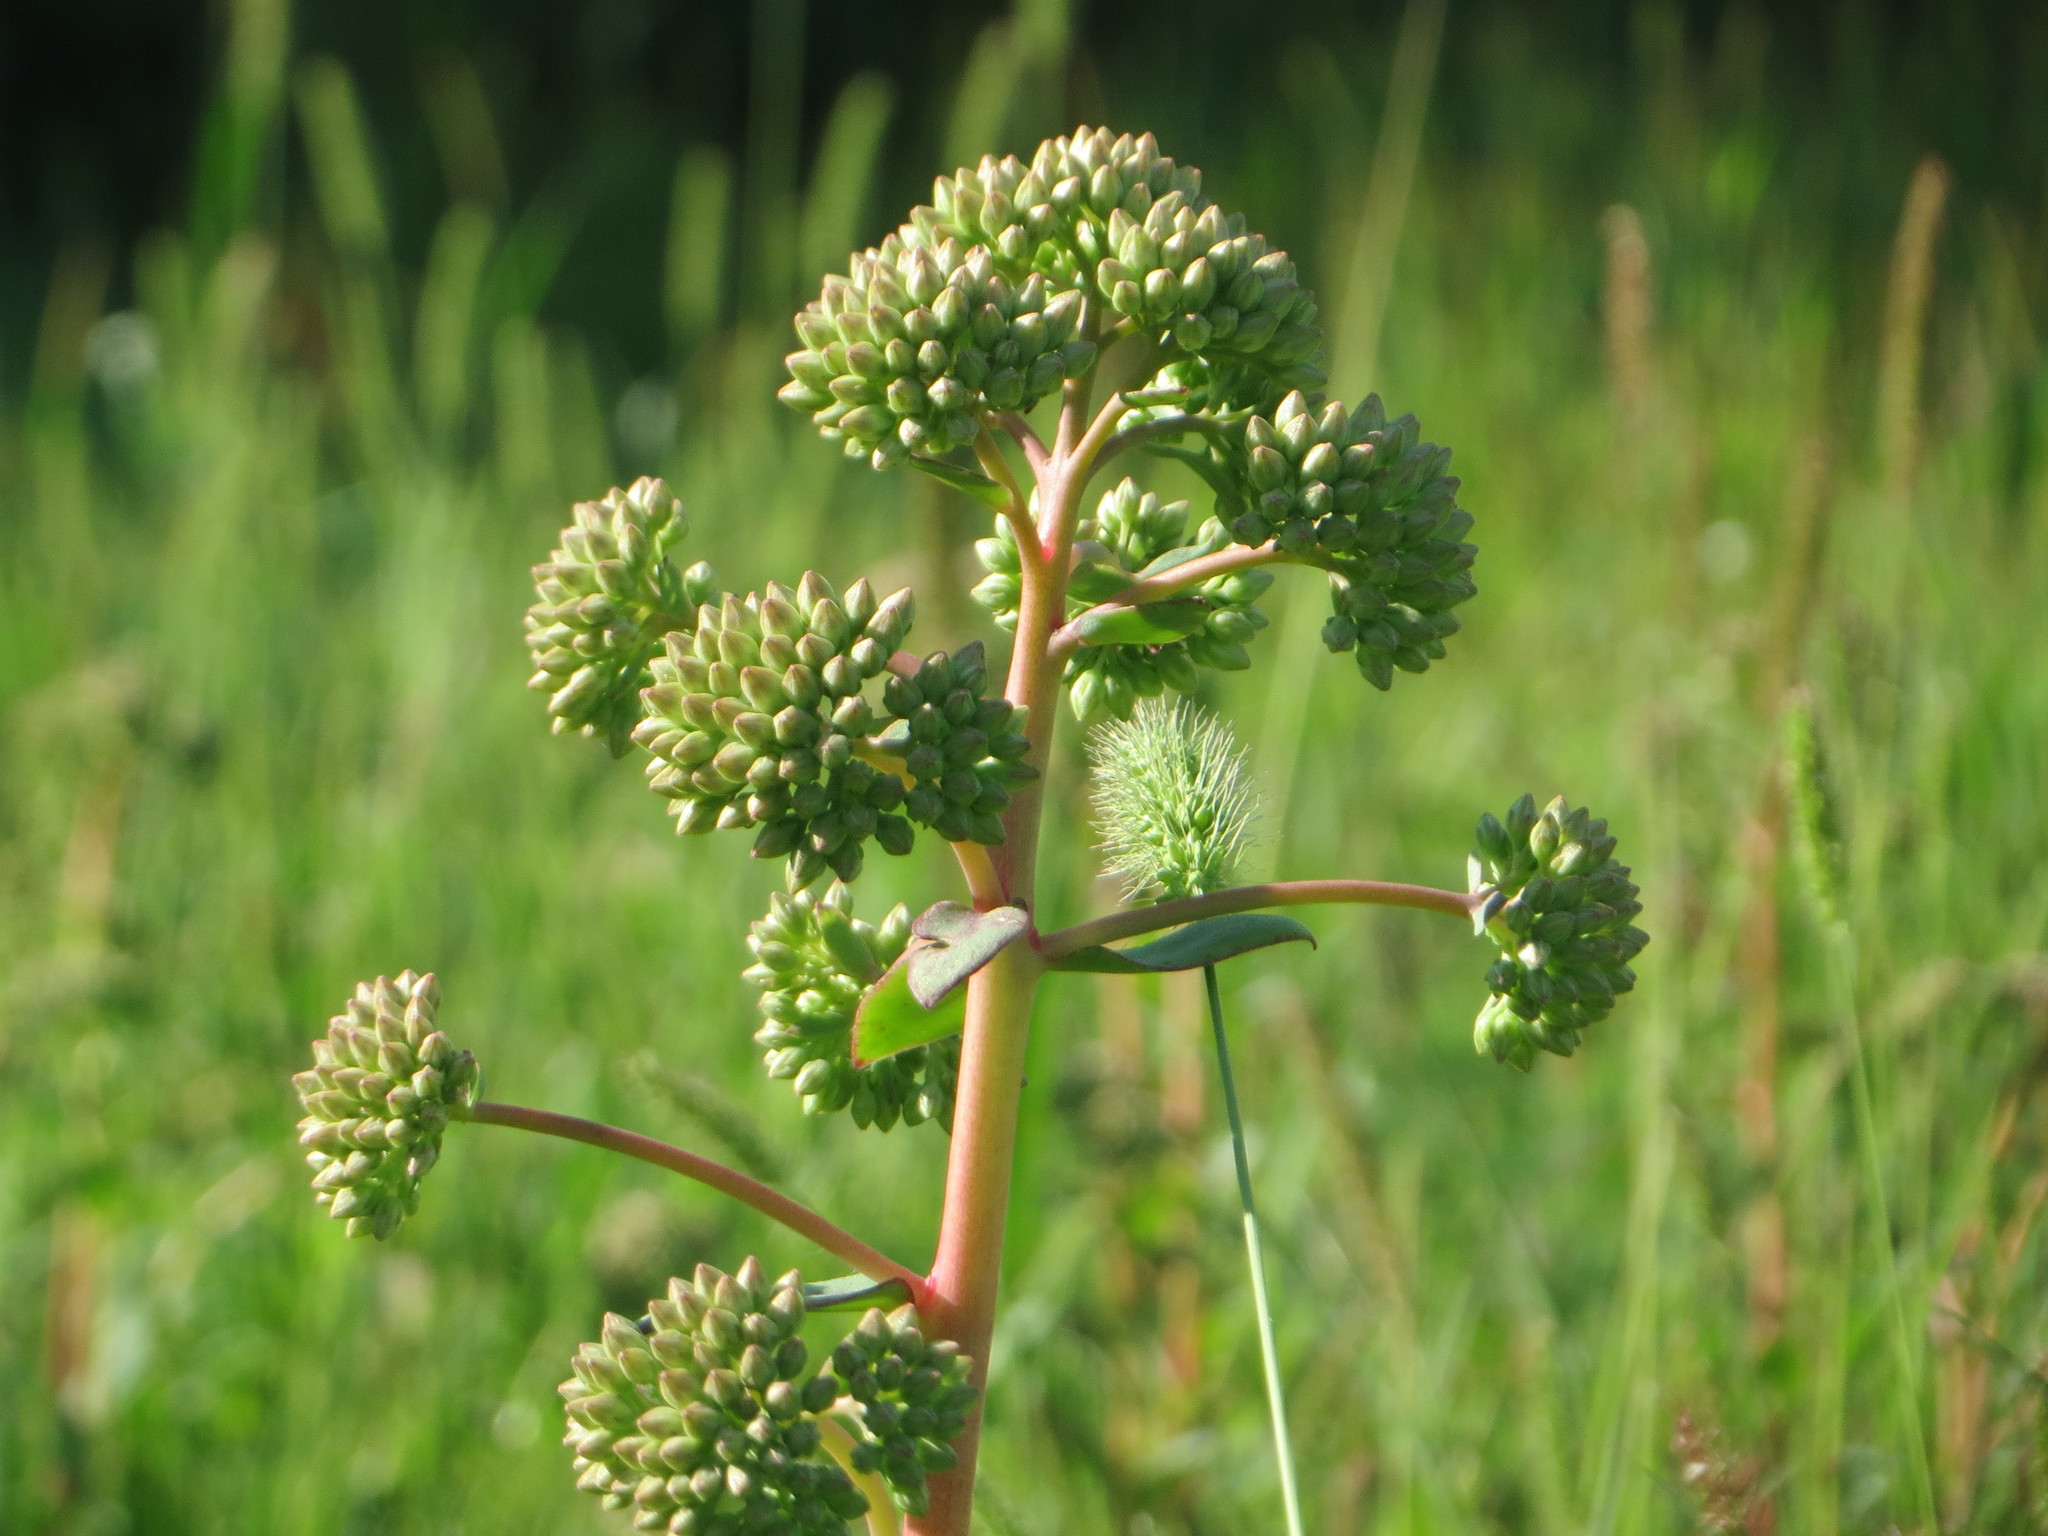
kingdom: Plantae
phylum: Tracheophyta
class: Magnoliopsida
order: Saxifragales
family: Crassulaceae
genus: Hylotelephium
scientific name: Hylotelephium telephium
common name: Live-forever
